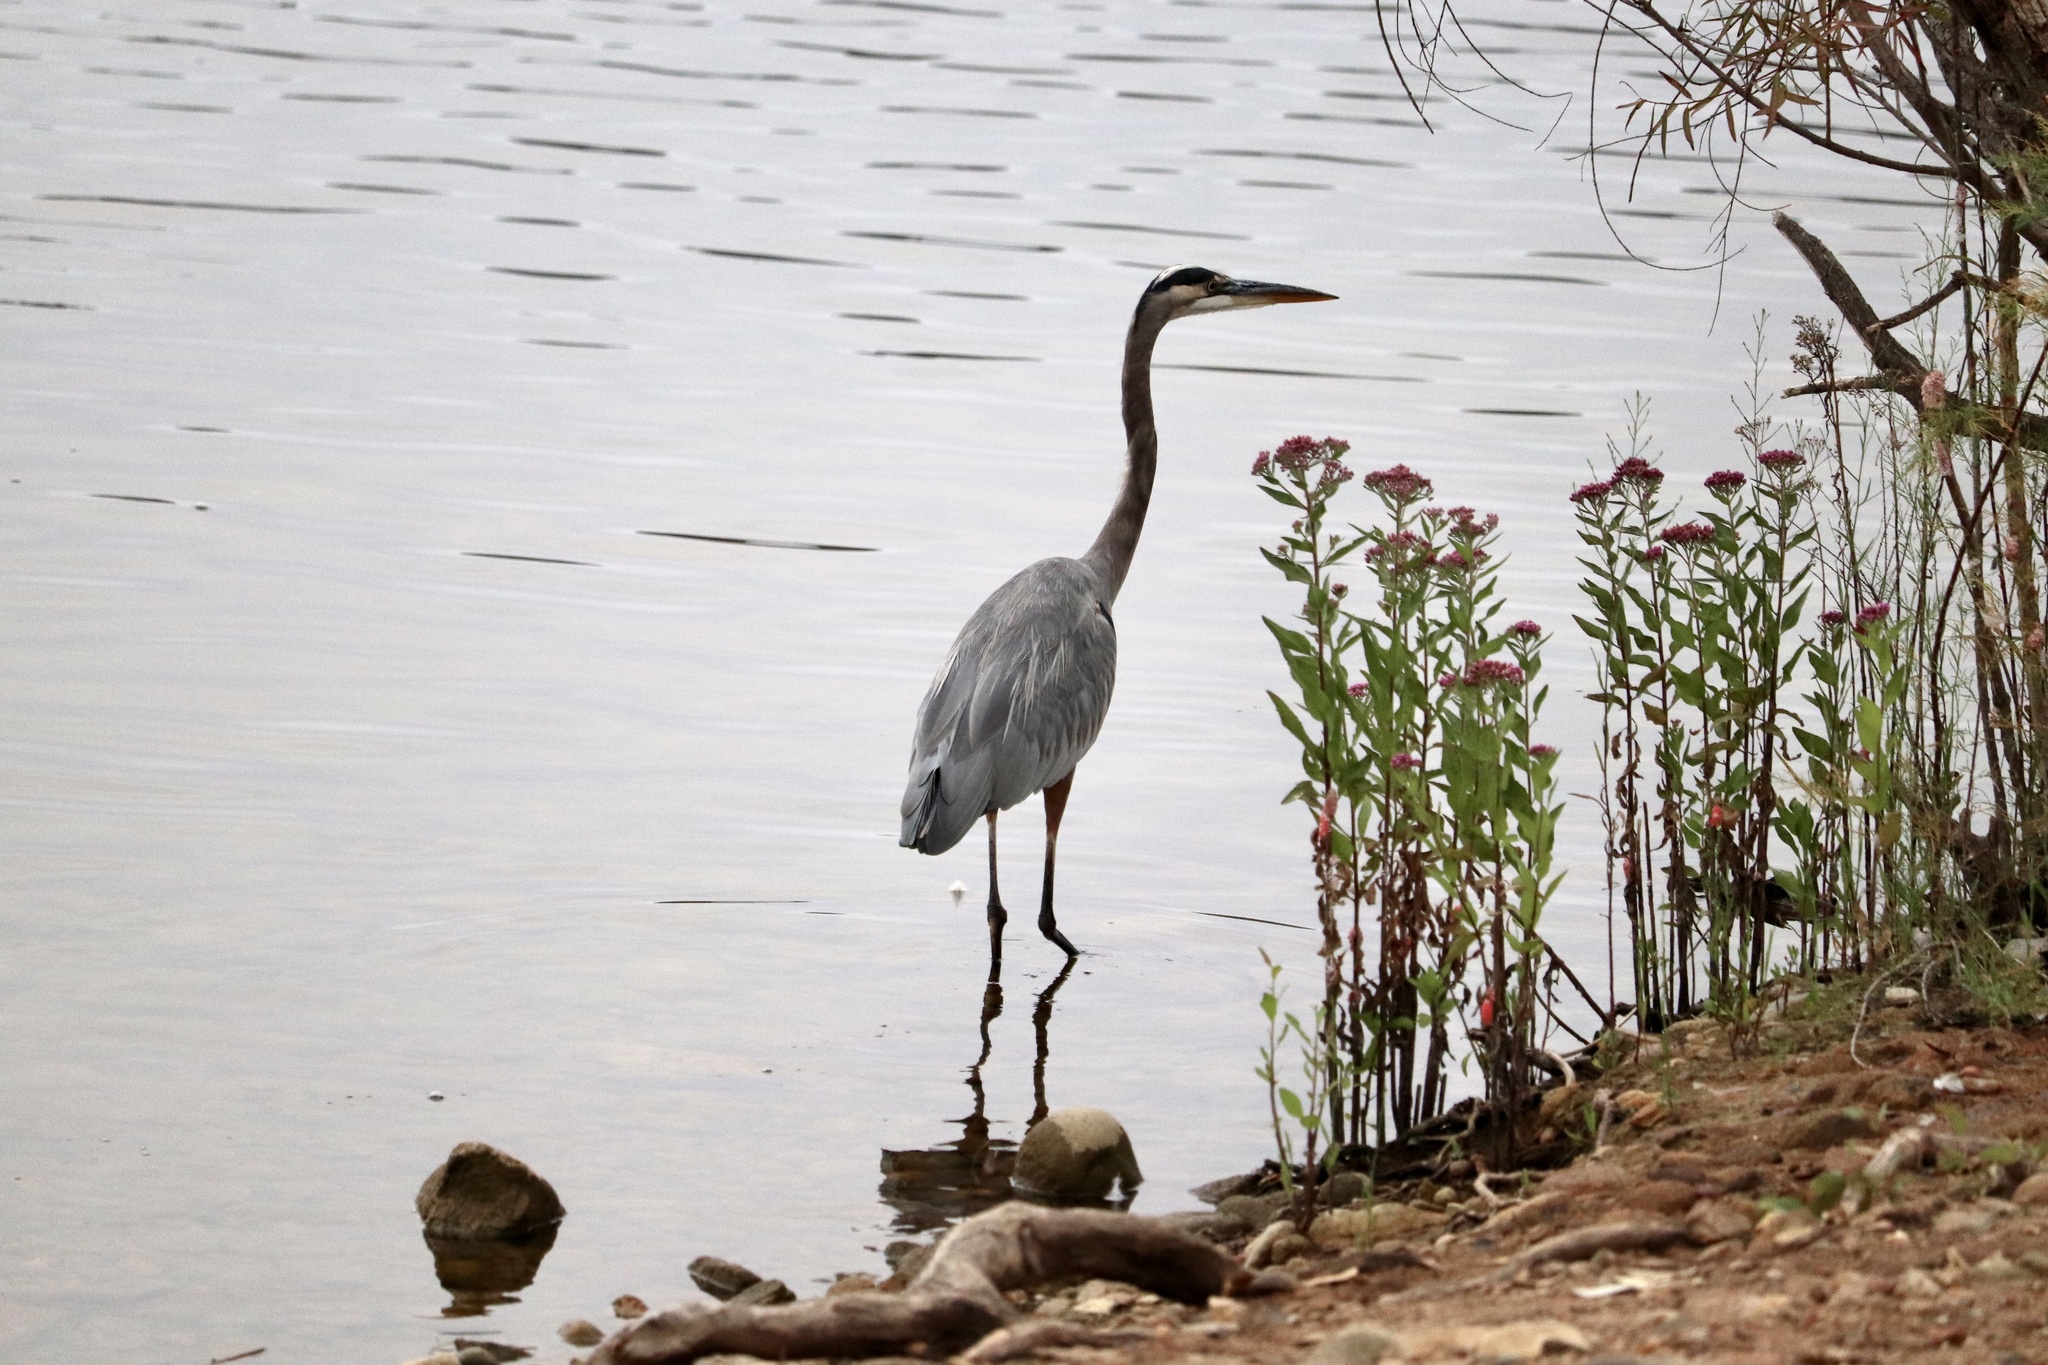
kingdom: Animalia
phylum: Chordata
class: Aves
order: Pelecaniformes
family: Ardeidae
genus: Ardea
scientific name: Ardea herodias
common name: Great blue heron
